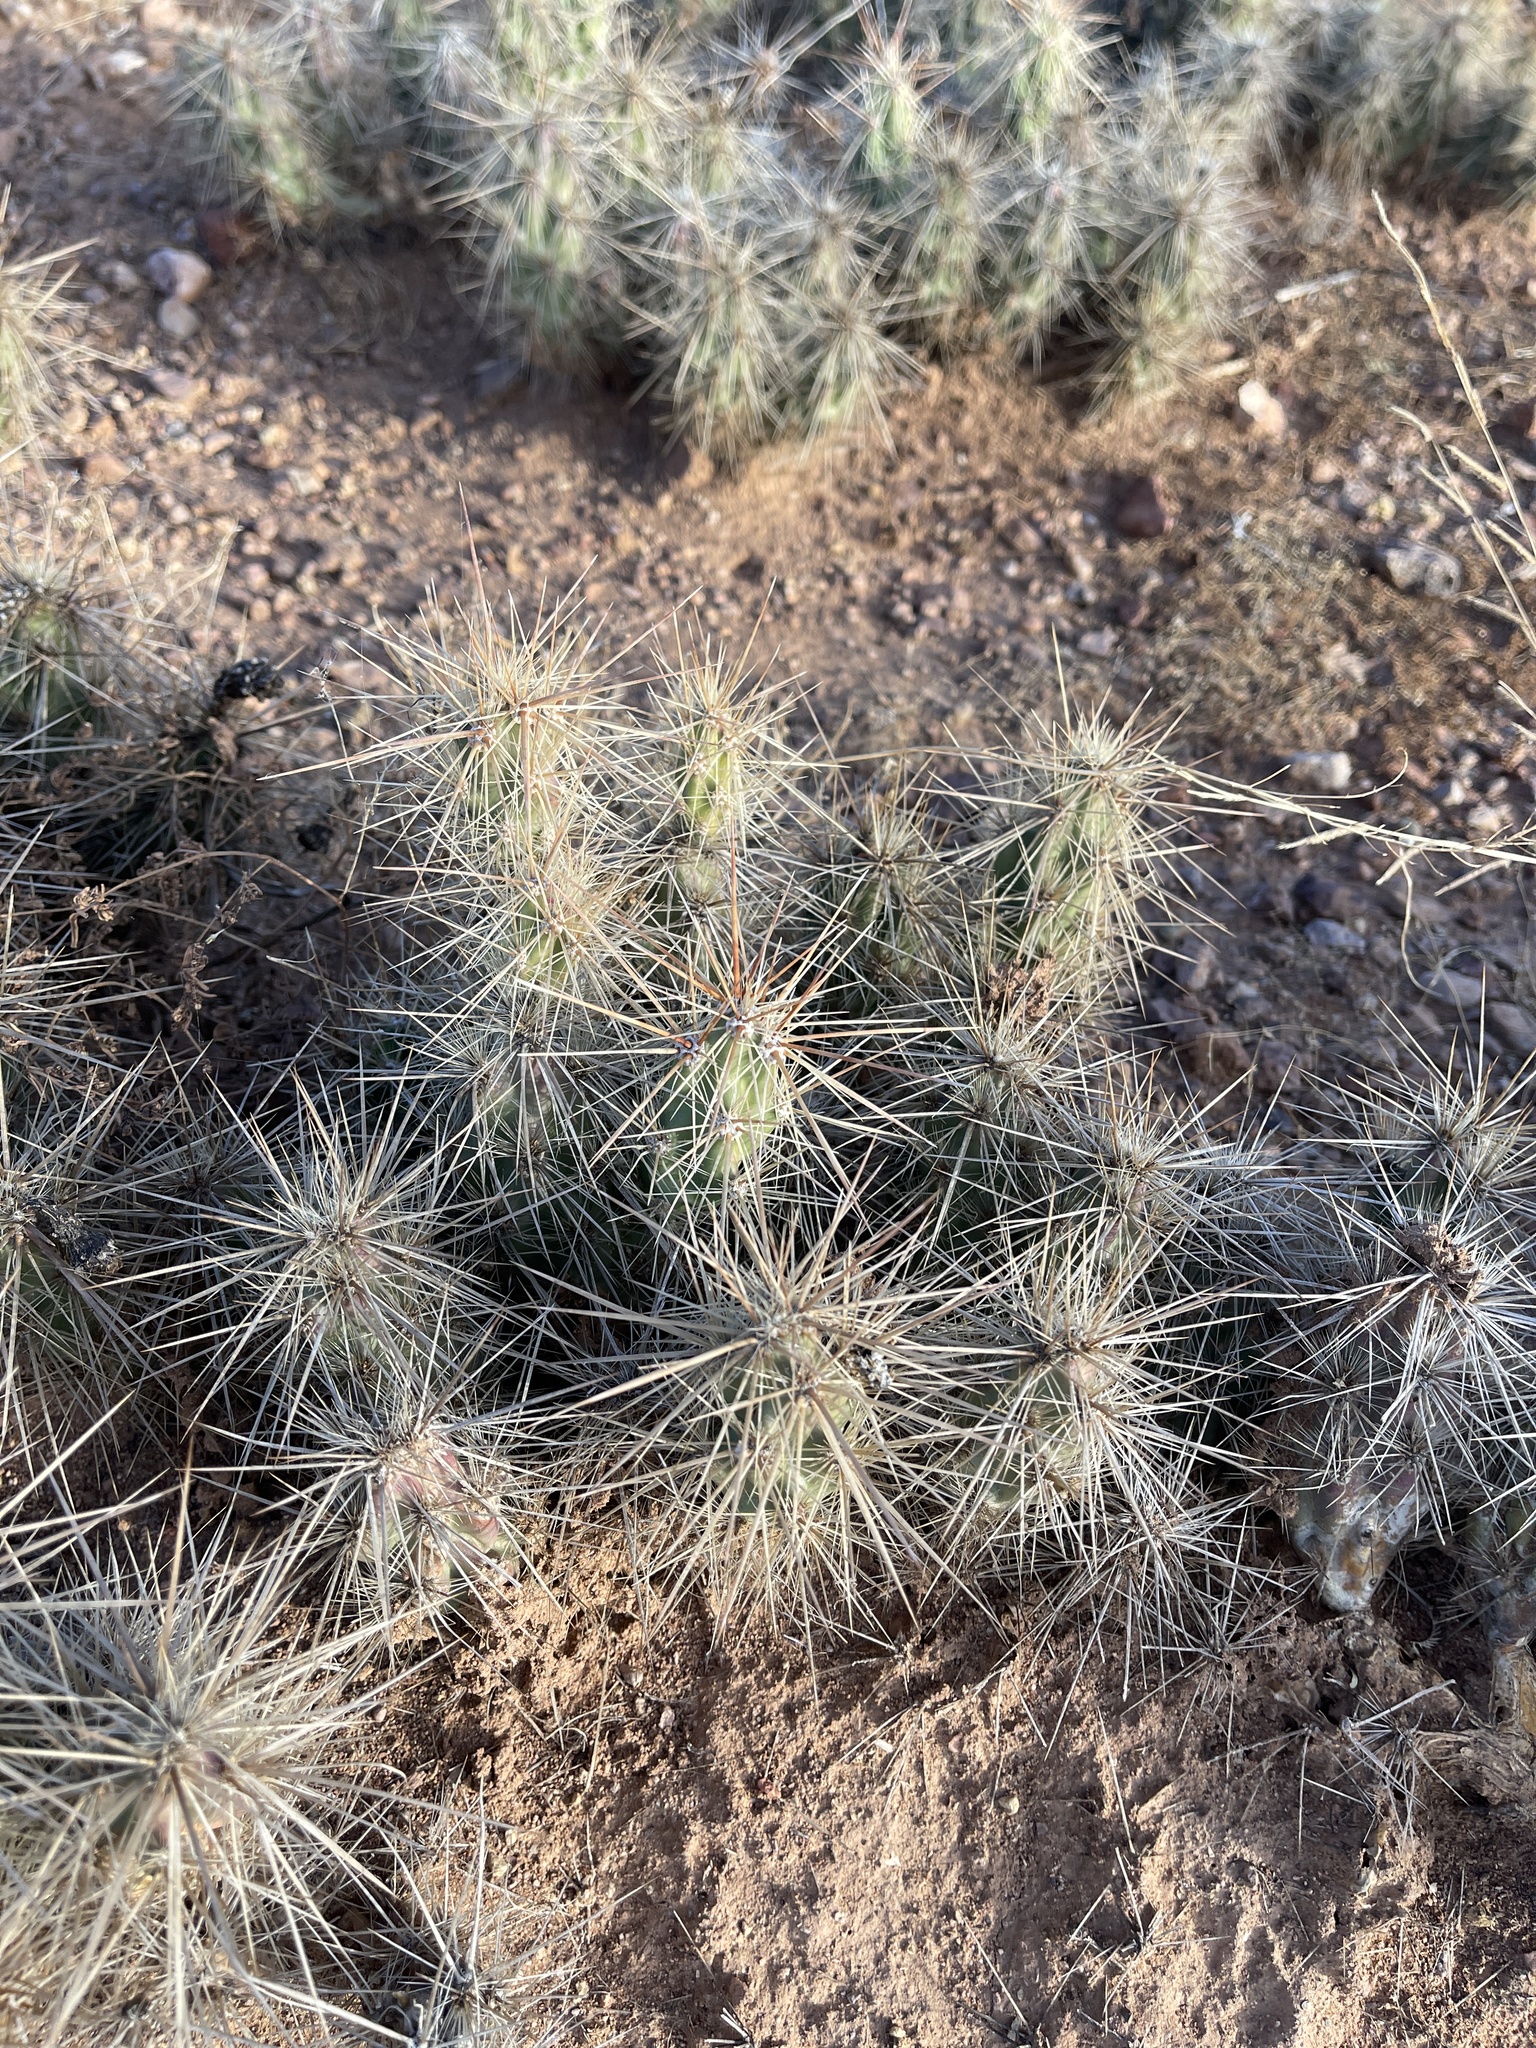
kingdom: Plantae
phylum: Tracheophyta
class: Magnoliopsida
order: Caryophyllales
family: Cactaceae
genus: Grusonia
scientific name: Grusonia emoryi
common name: Stanly's club cholla
